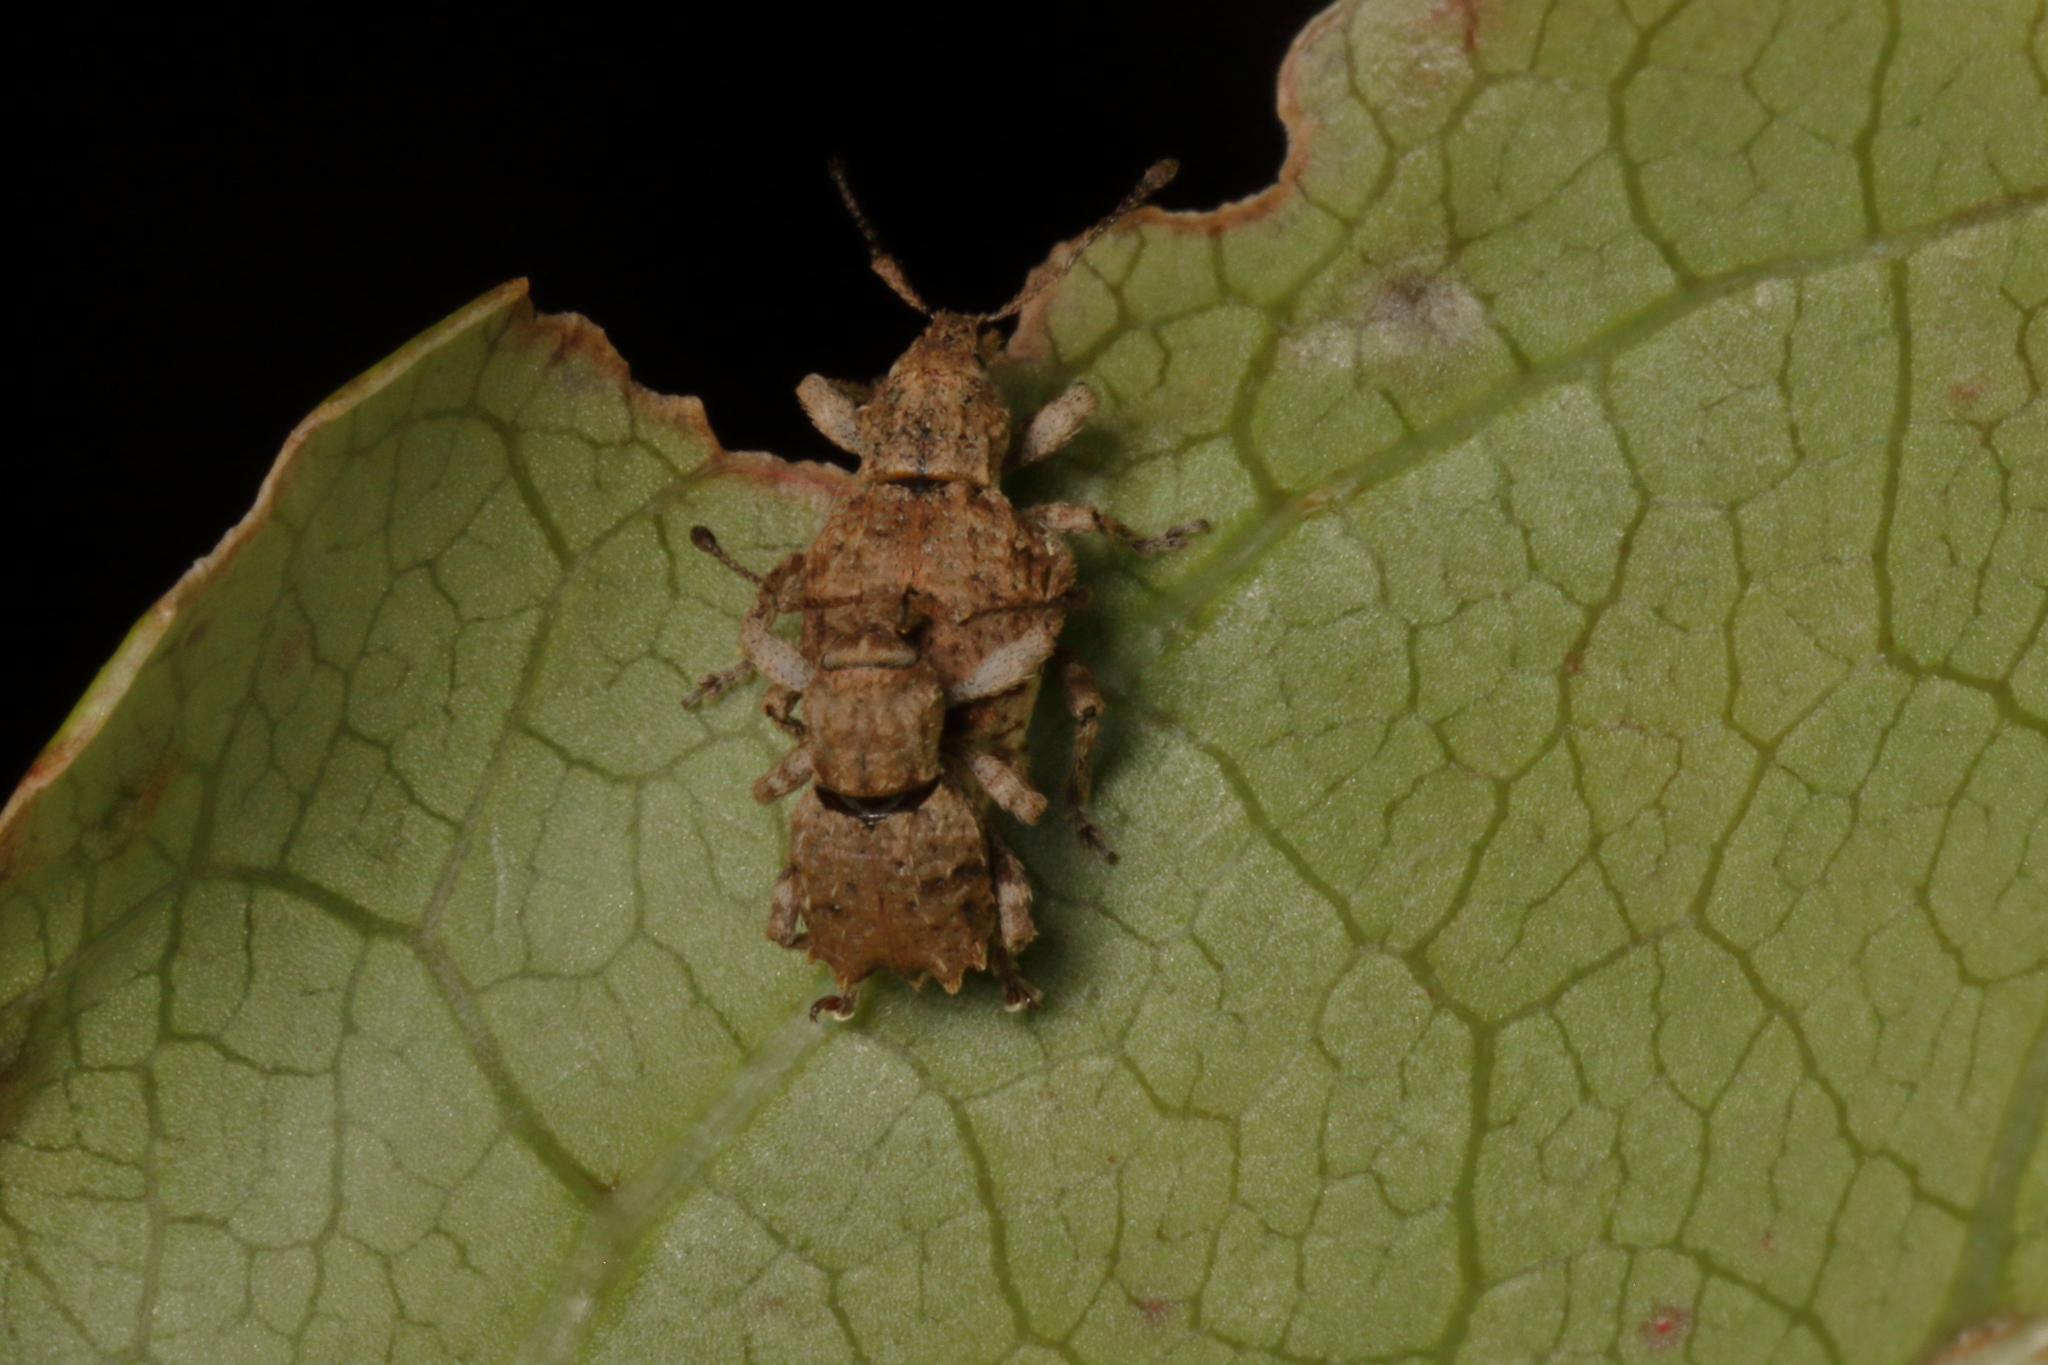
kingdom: Animalia
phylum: Arthropoda
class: Insecta
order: Coleoptera
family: Curculionidae
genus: Chalepistes
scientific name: Chalepistes costifer
